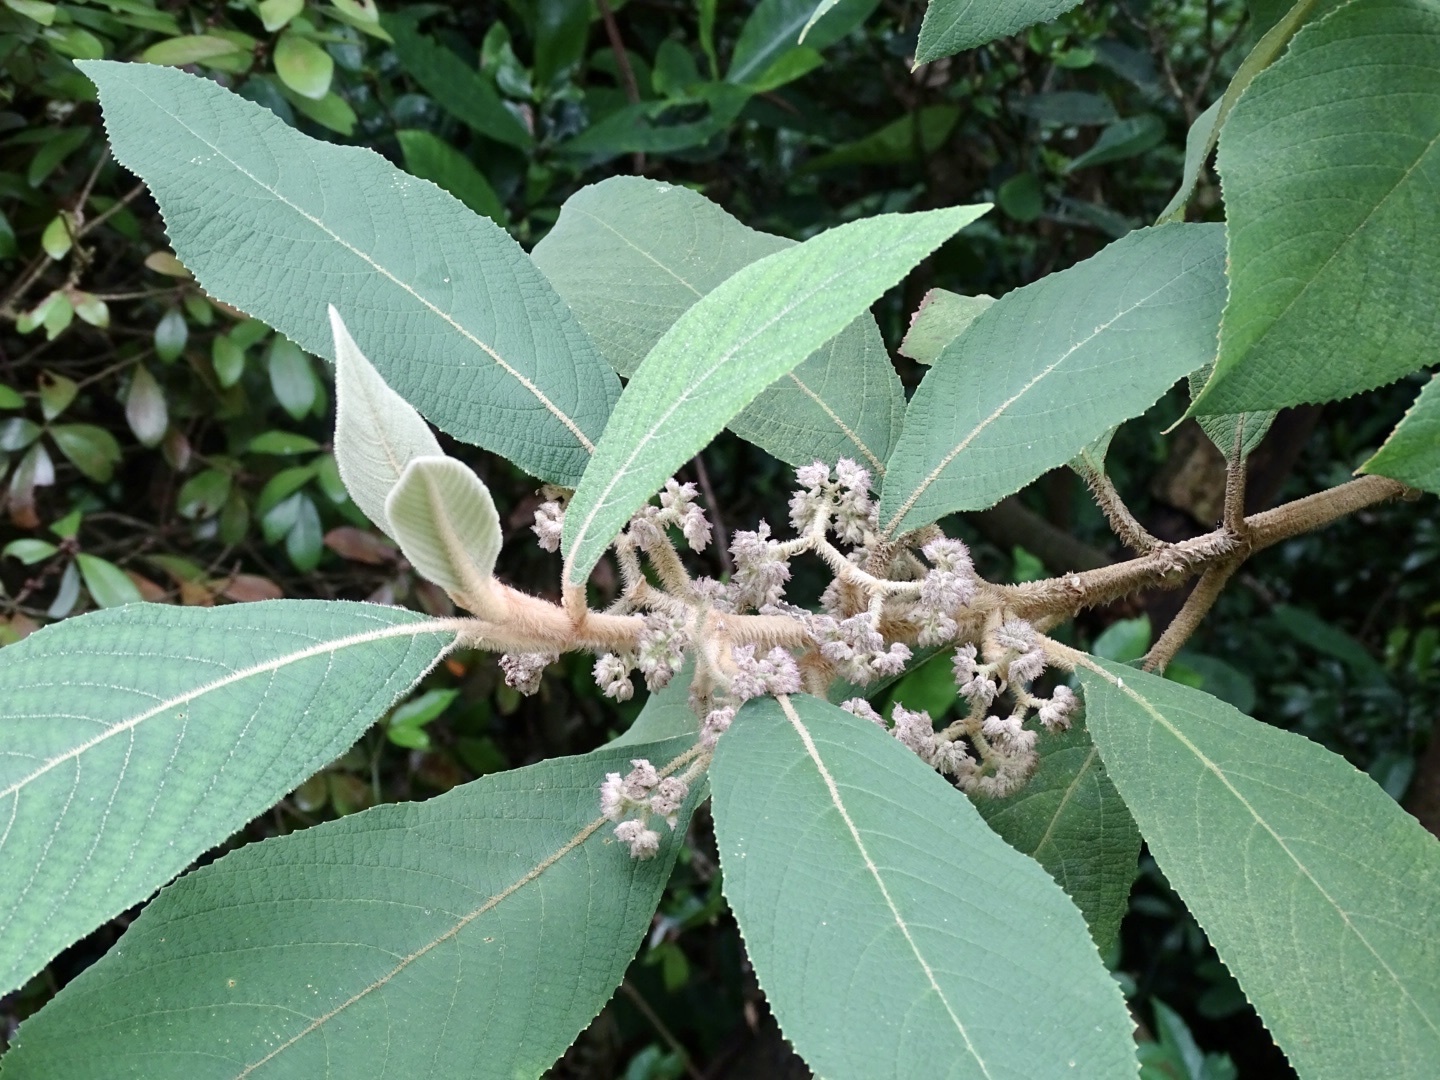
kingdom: Plantae
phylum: Tracheophyta
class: Magnoliopsida
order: Lamiales
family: Lamiaceae
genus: Callicarpa
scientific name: Callicarpa kochiana
